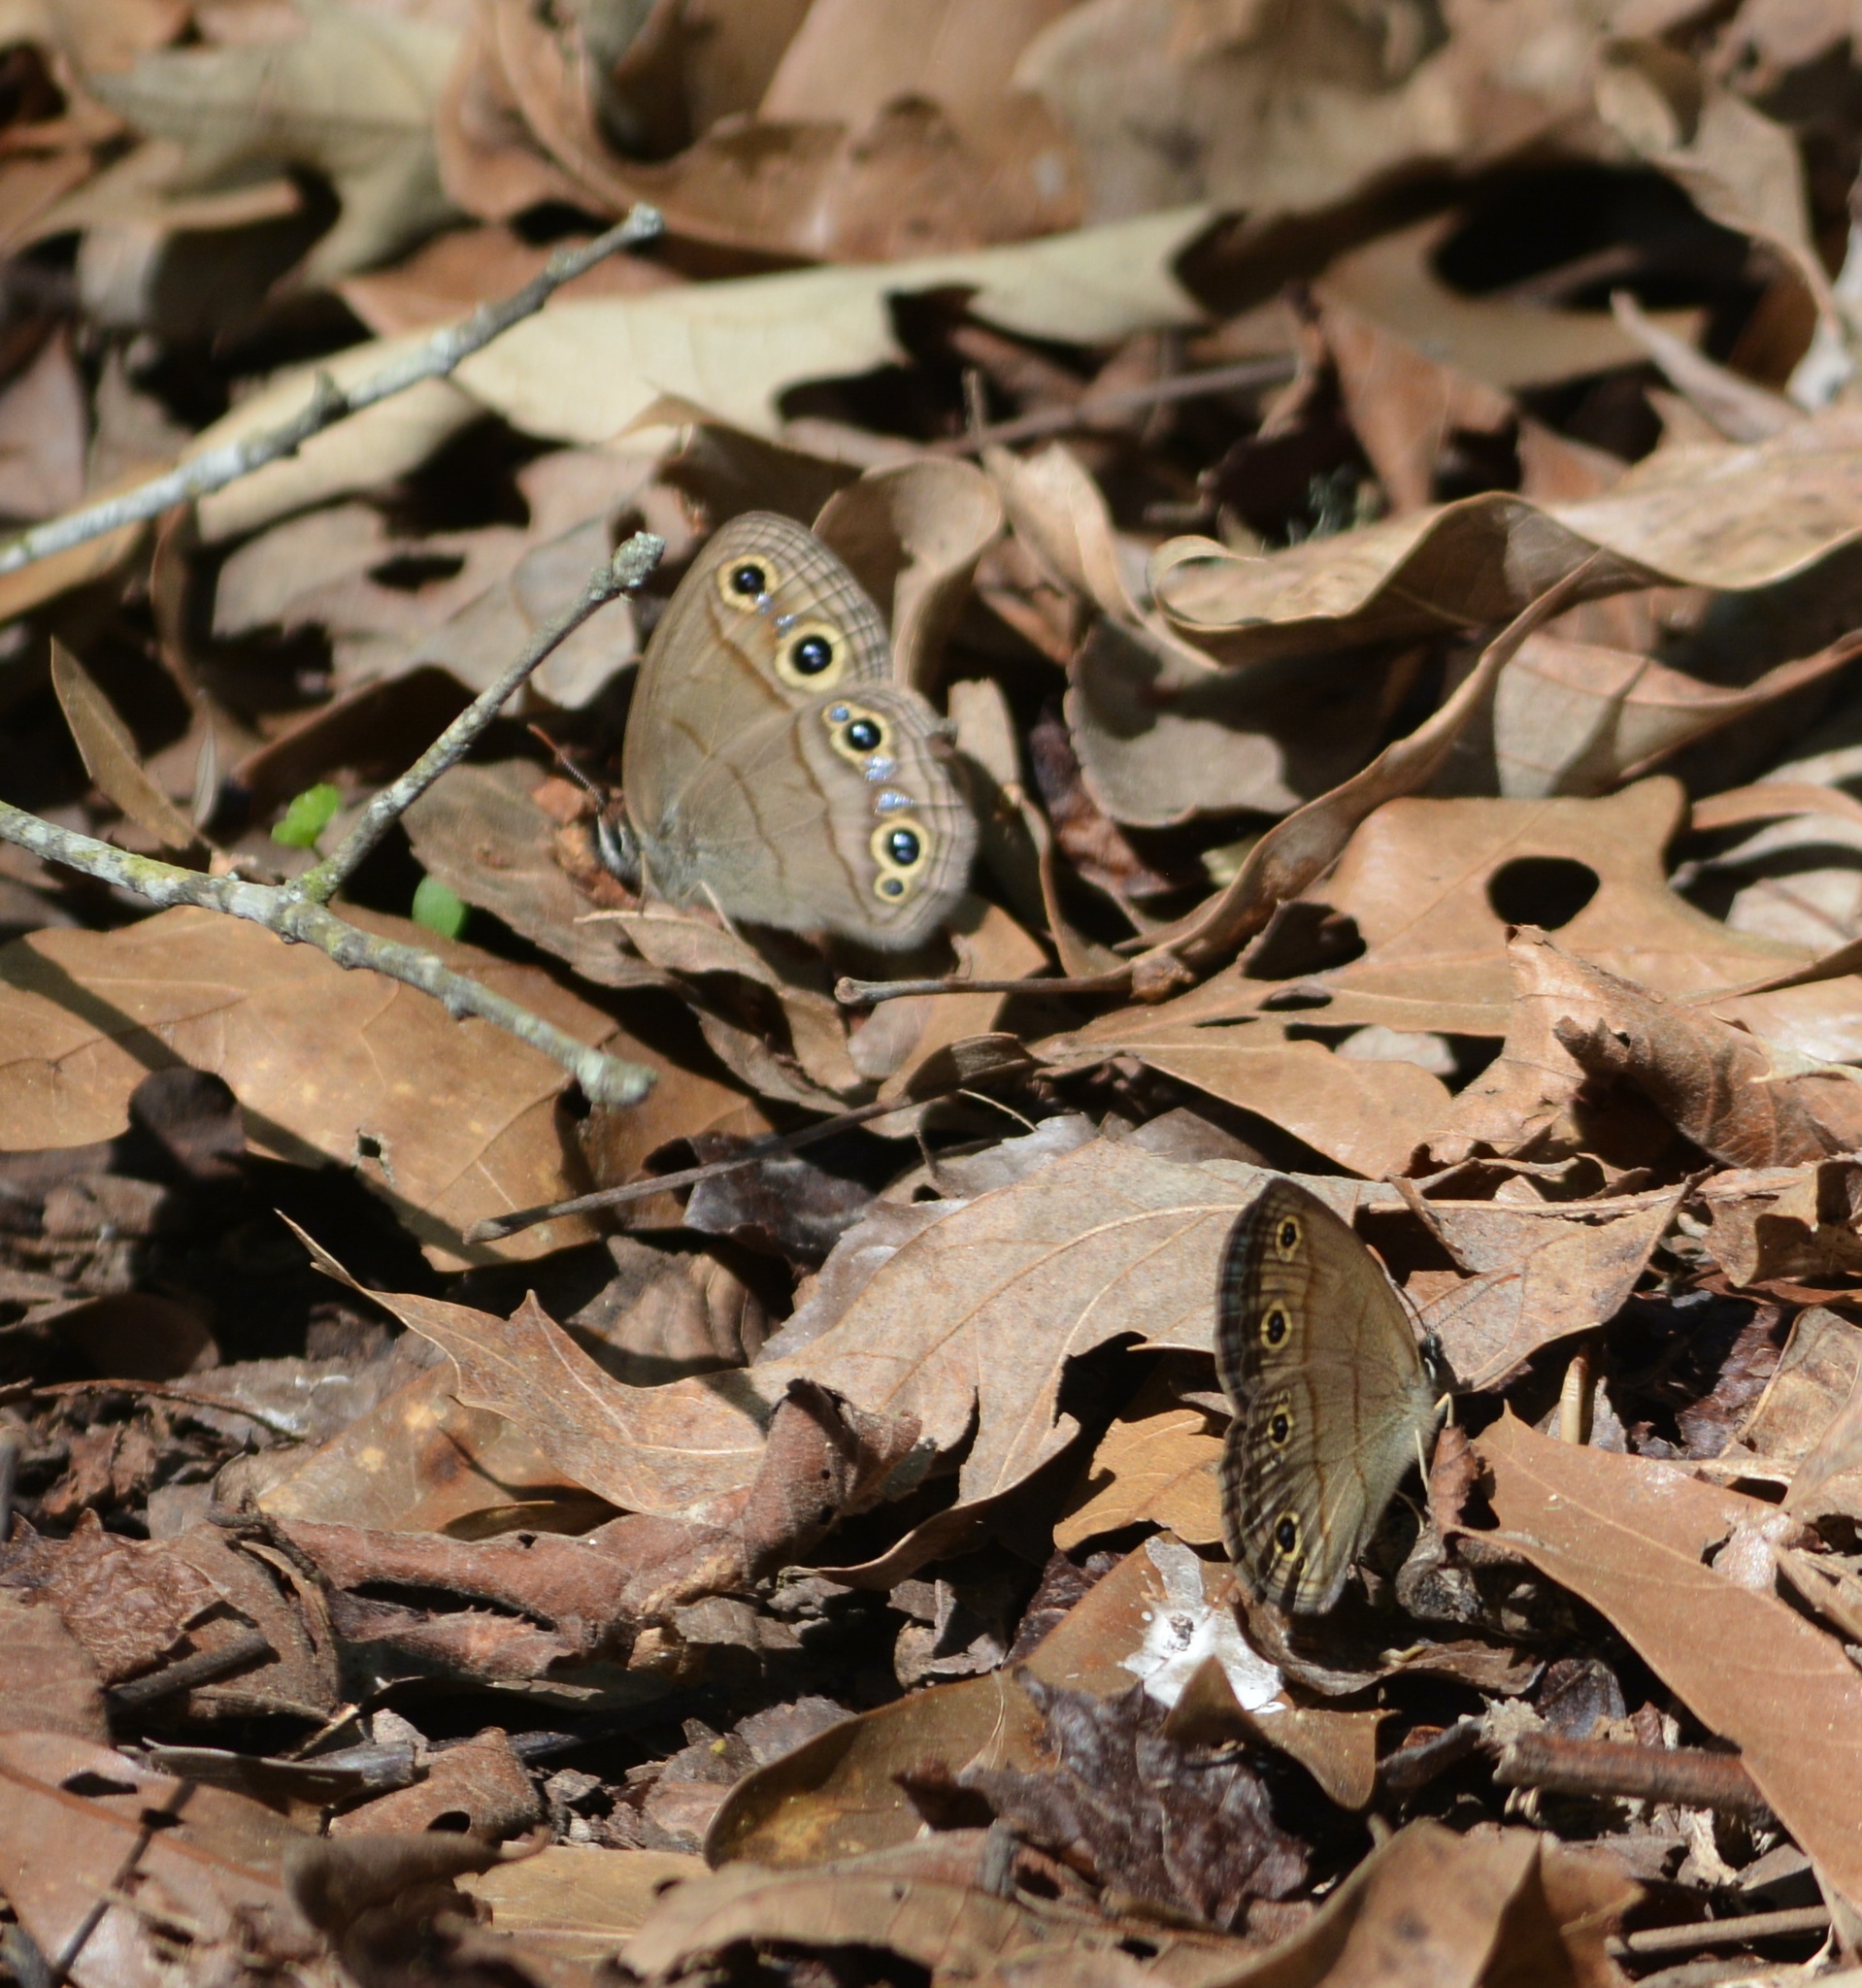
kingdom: Animalia
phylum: Arthropoda
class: Insecta
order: Lepidoptera
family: Nymphalidae
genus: Euptychia
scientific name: Euptychia cymela
